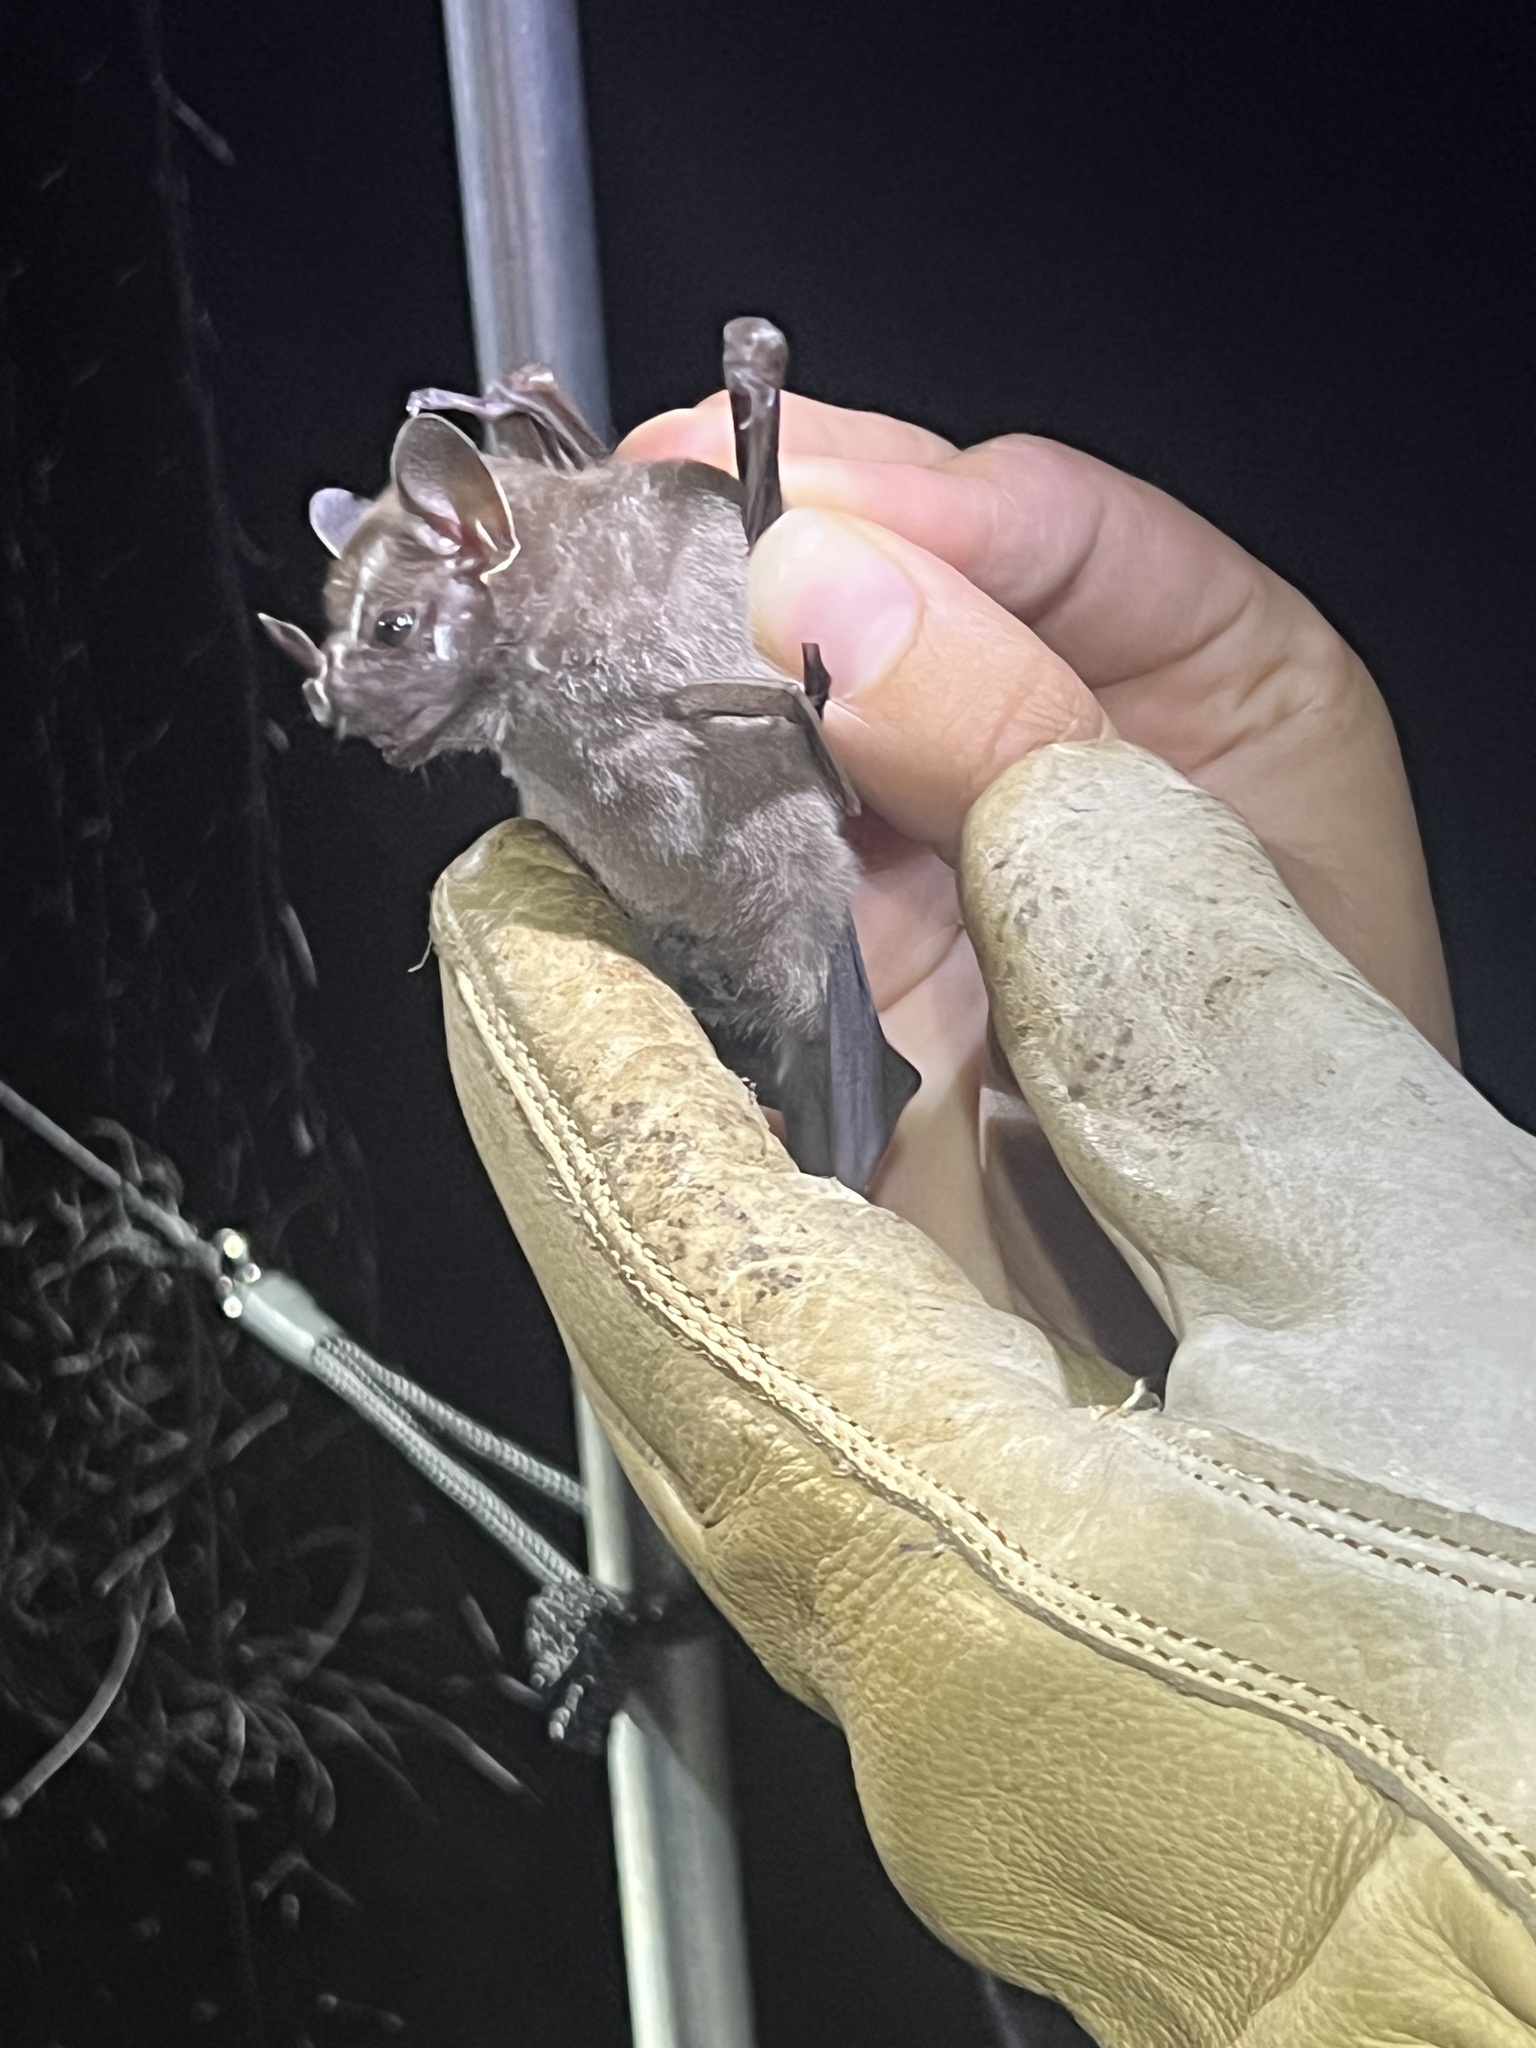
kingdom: Animalia
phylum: Chordata
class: Mammalia
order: Chiroptera
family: Phyllostomidae
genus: Uroderma
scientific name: Uroderma bilobatum
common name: Common tent-making bat
